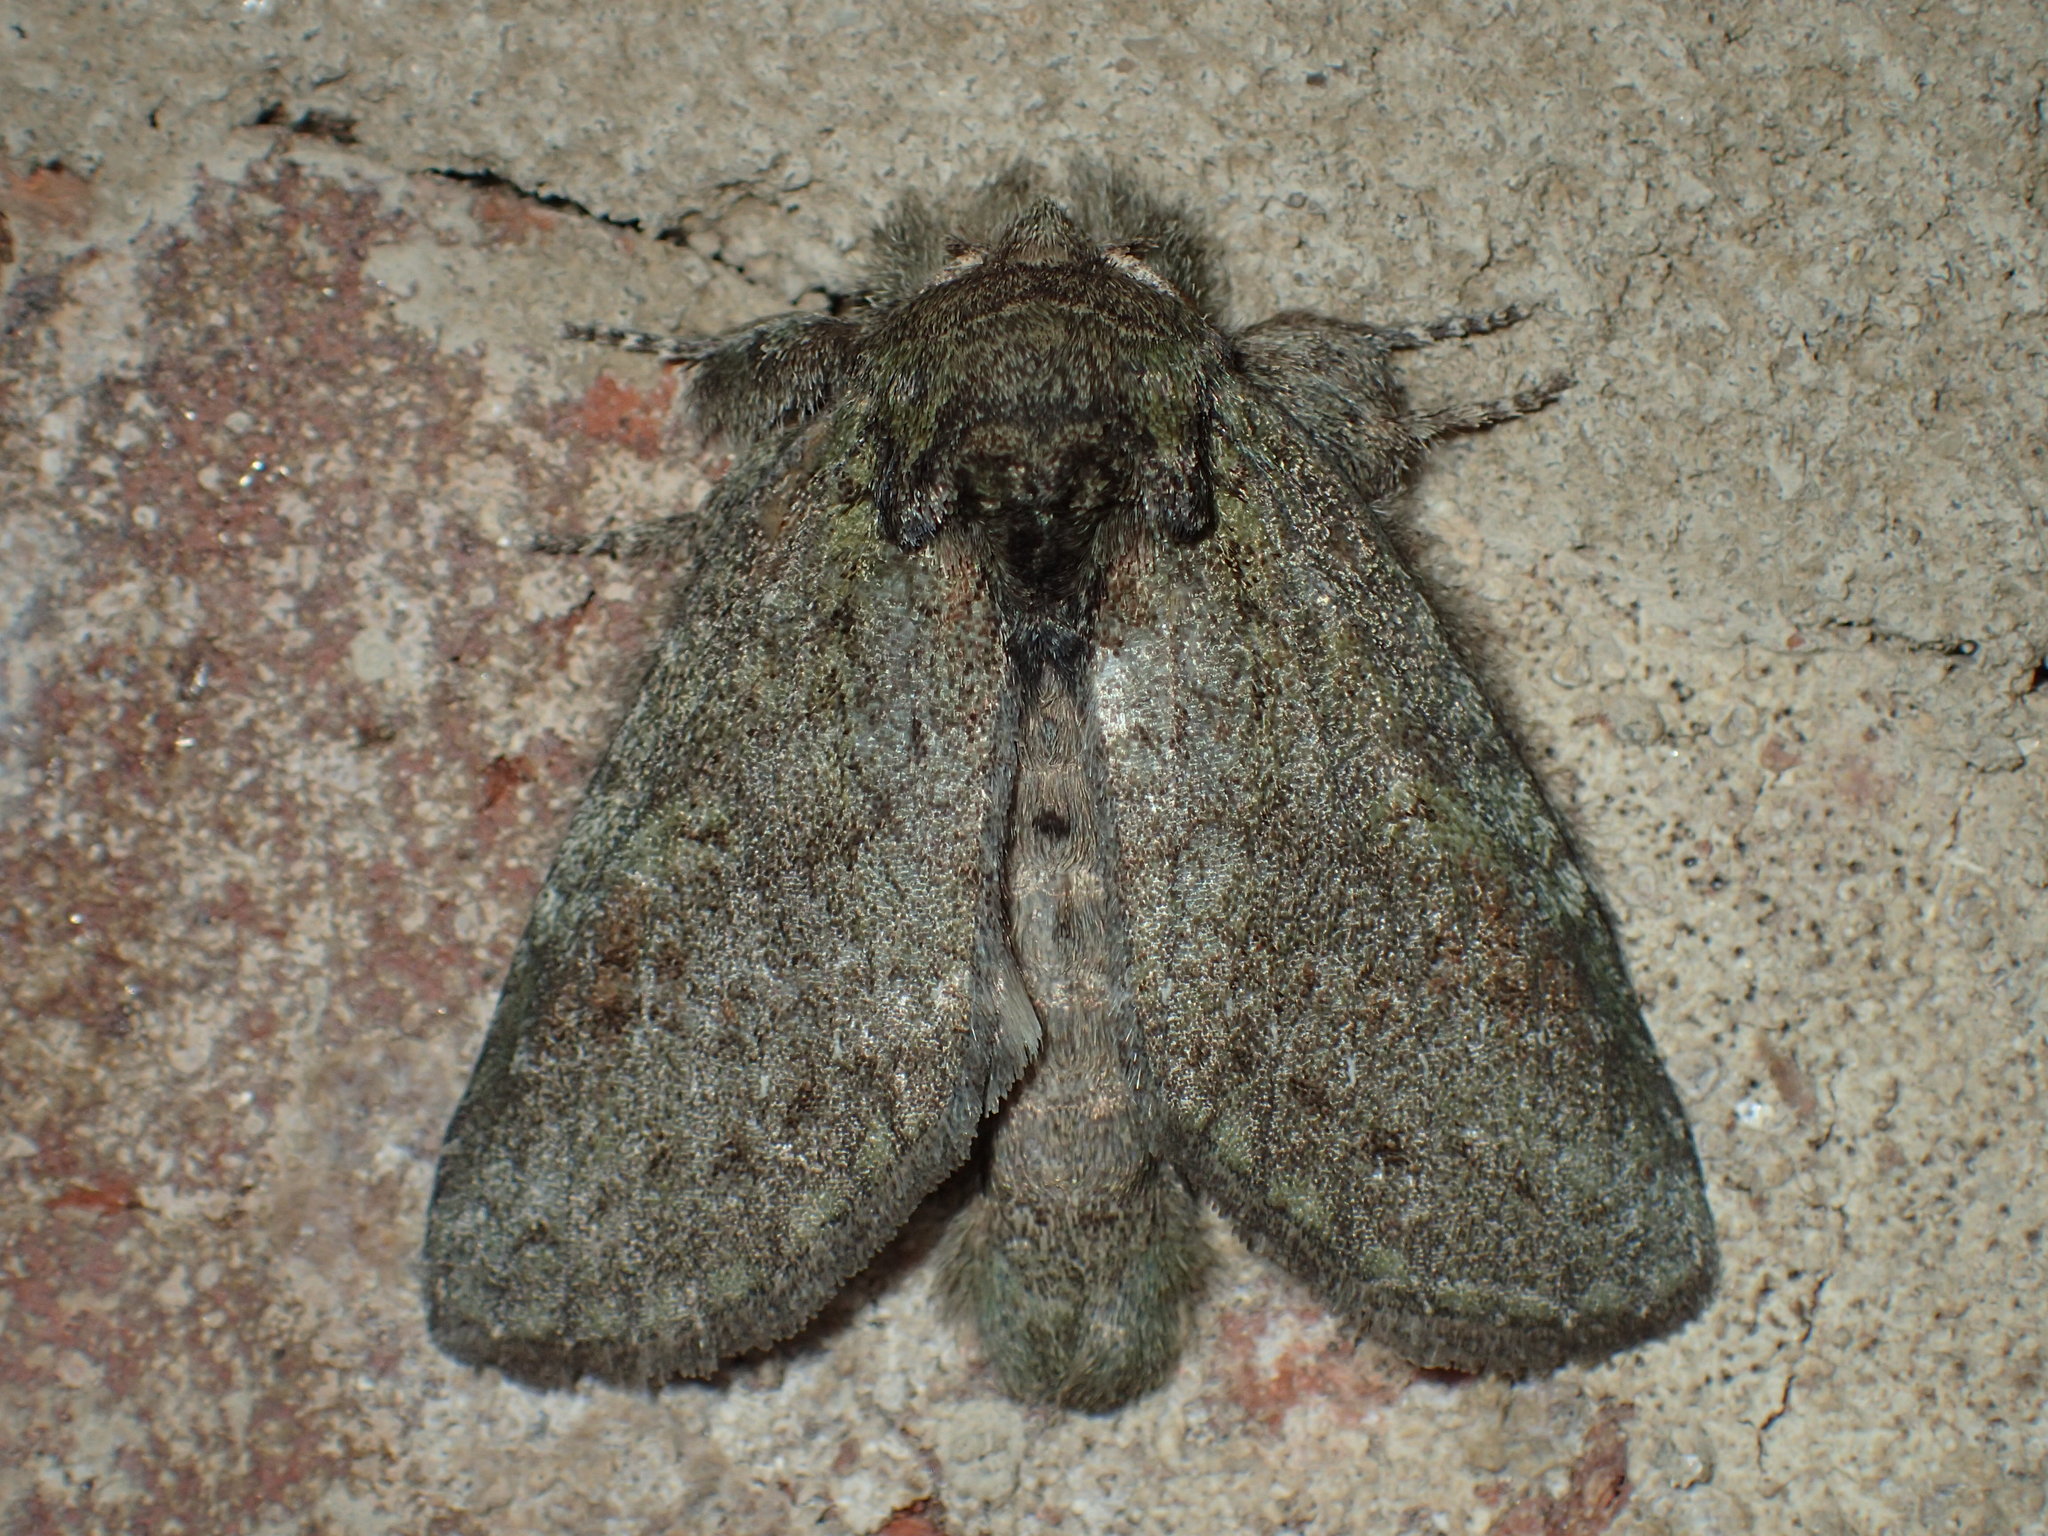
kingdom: Animalia
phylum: Arthropoda
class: Insecta
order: Lepidoptera
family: Notodontidae
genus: Disphragis
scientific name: Disphragis Cecrita guttivitta
